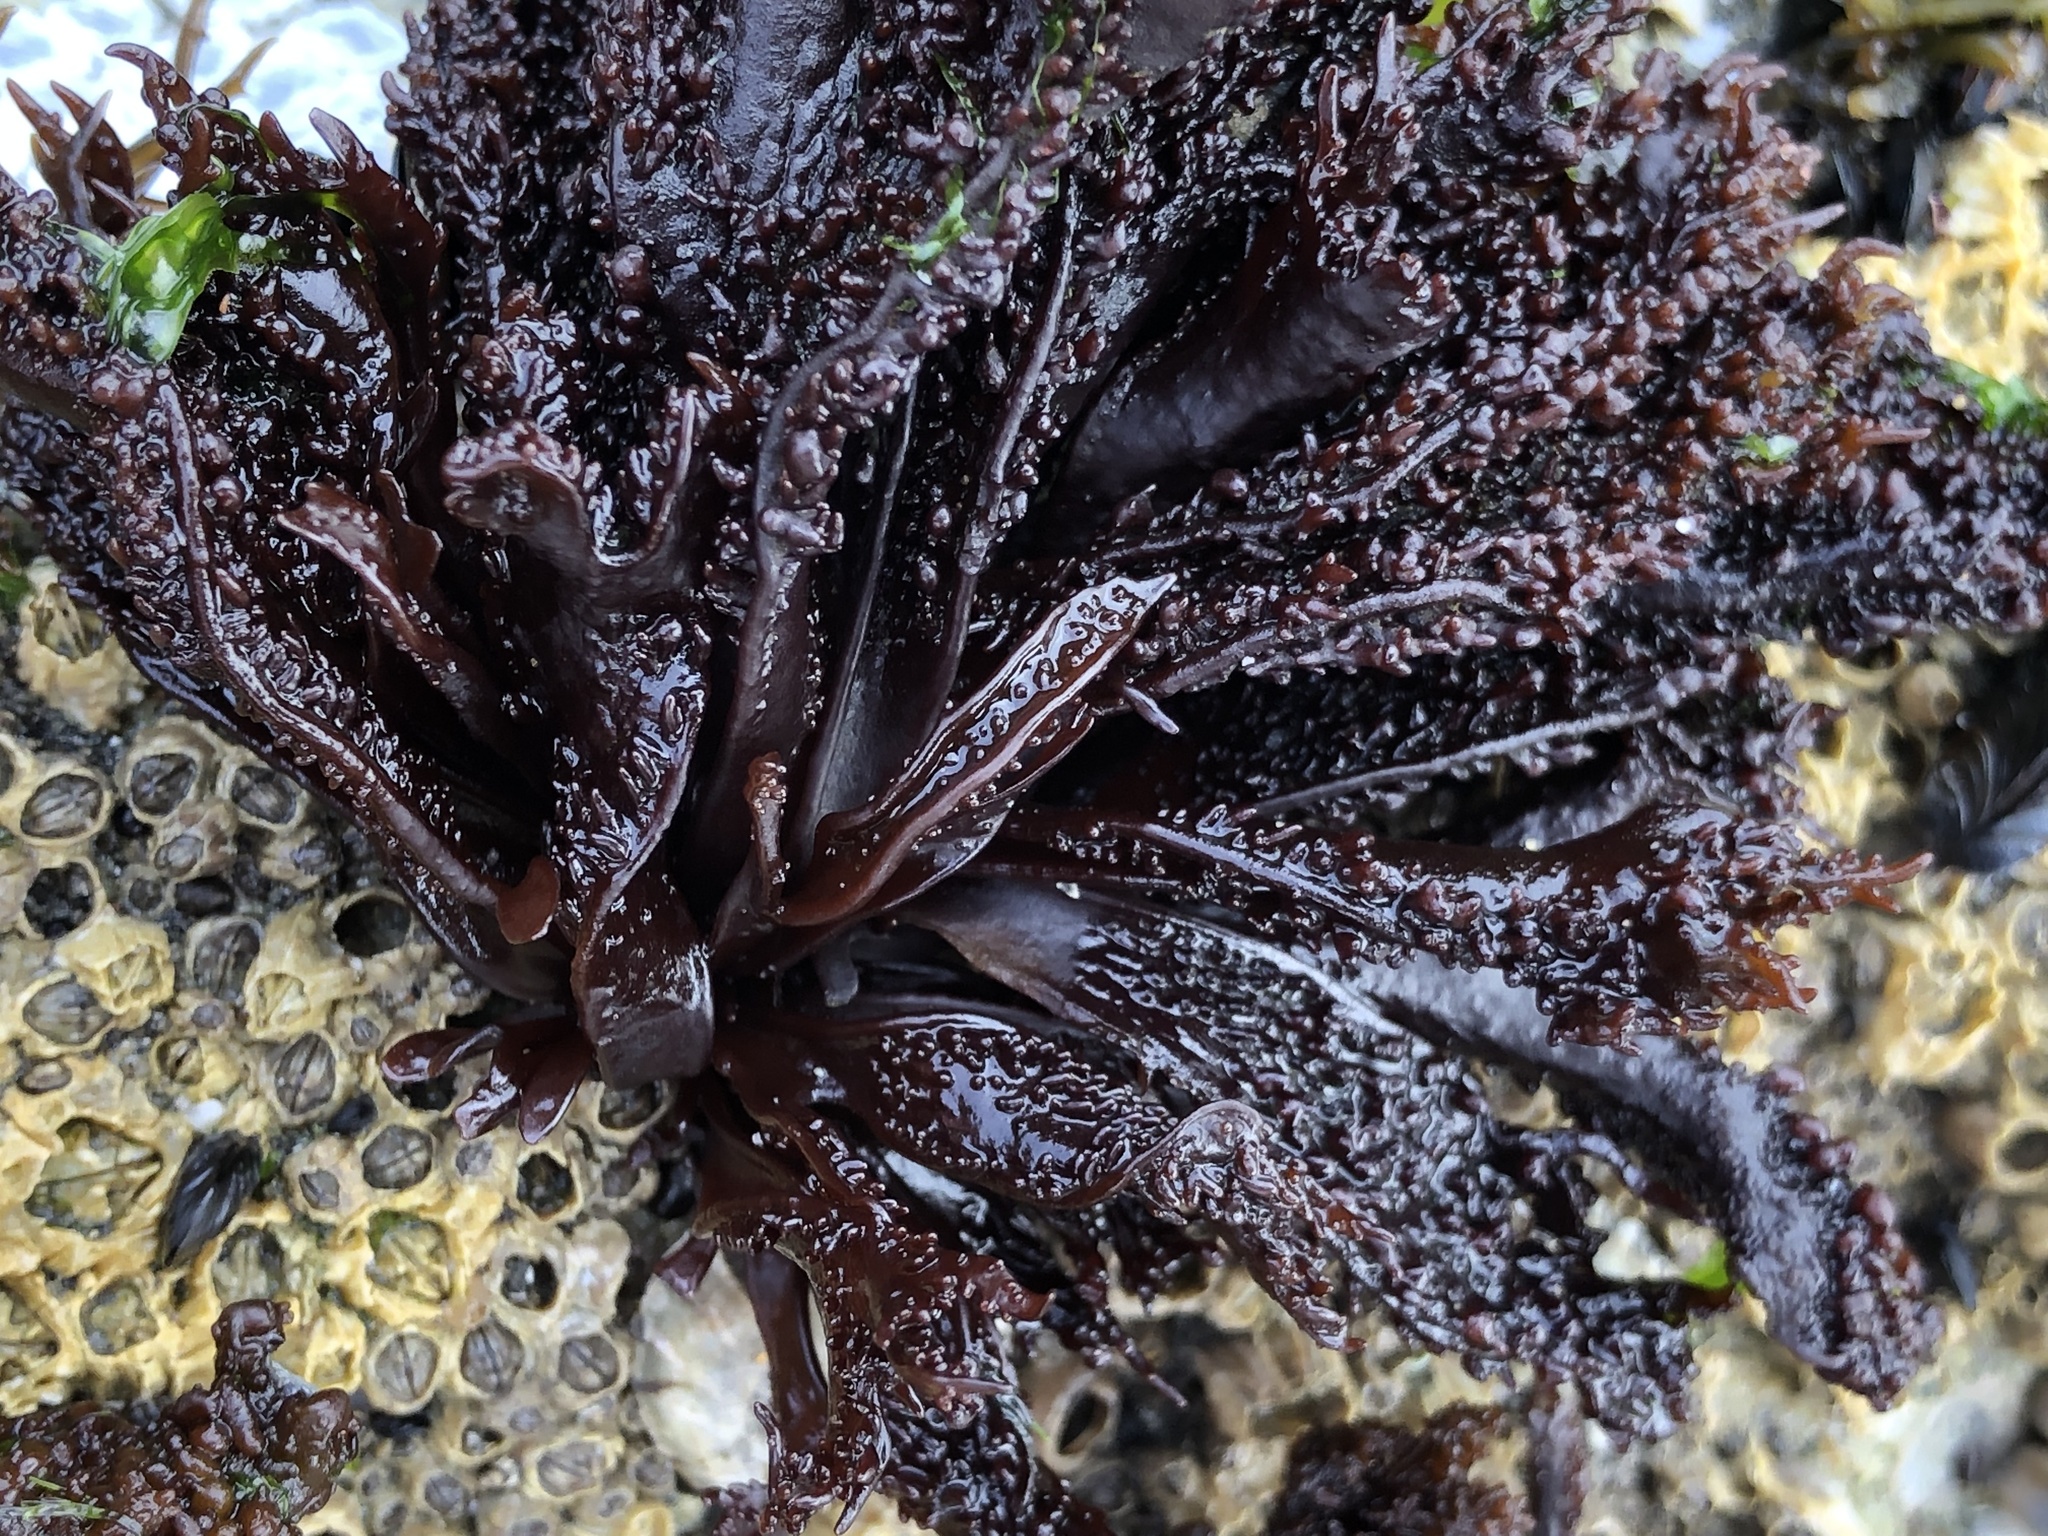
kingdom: Plantae
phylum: Rhodophyta
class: Florideophyceae
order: Gigartinales
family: Phyllophoraceae
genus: Mastocarpus
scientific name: Mastocarpus papillatus
